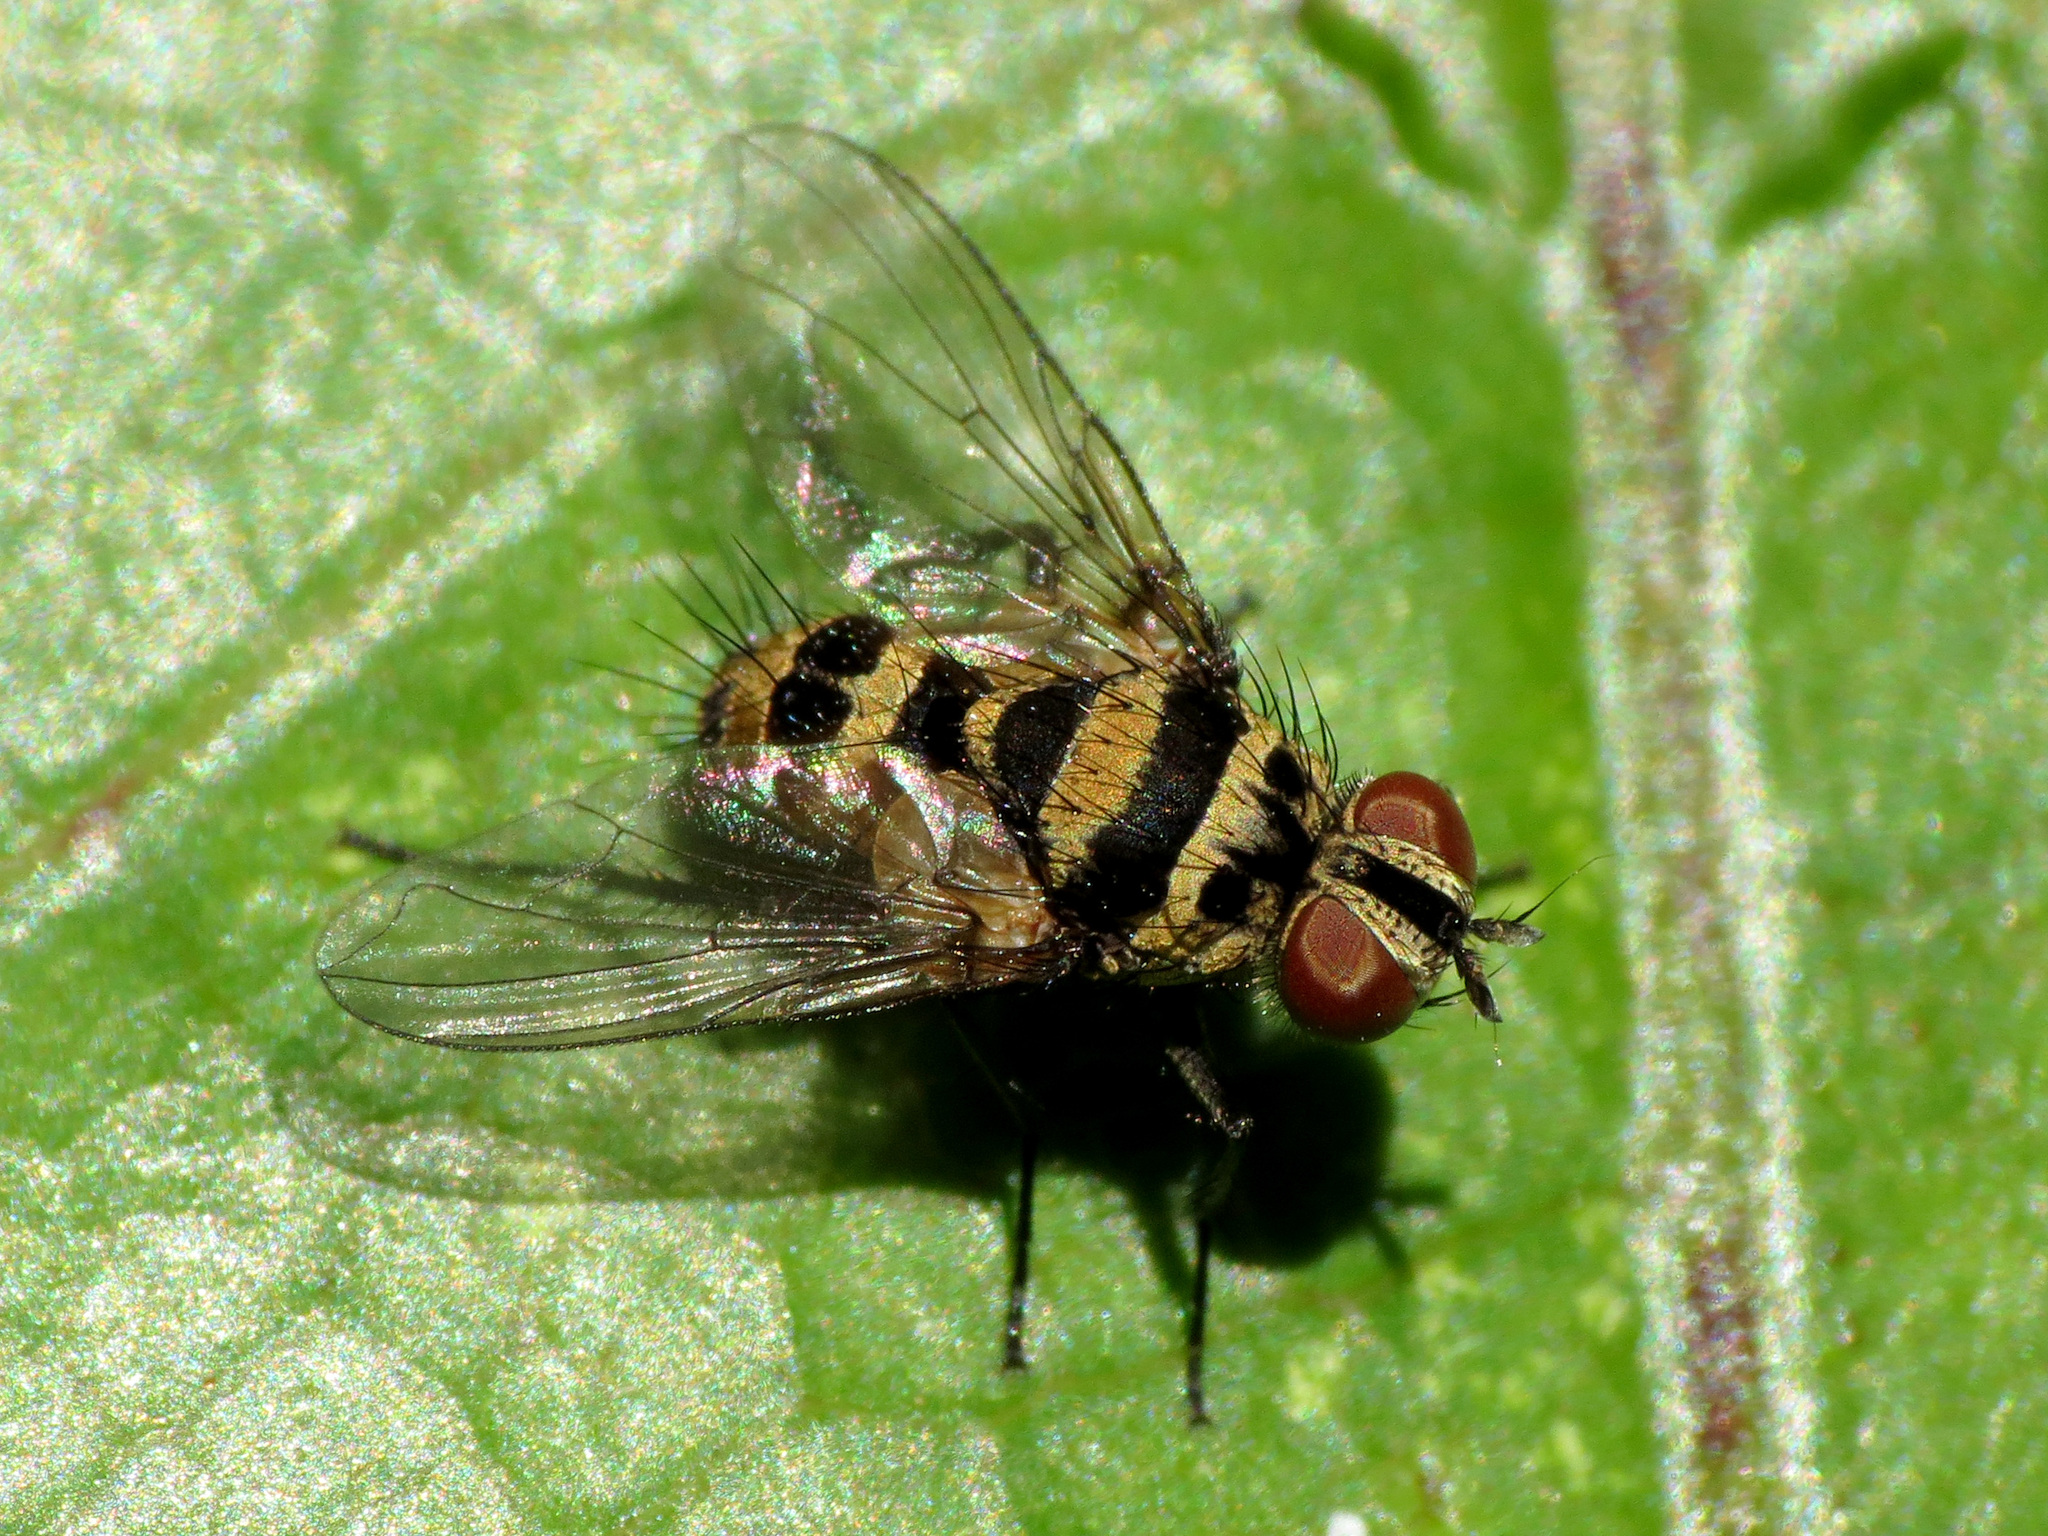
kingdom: Animalia
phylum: Arthropoda
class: Insecta
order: Diptera
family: Tachinidae
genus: Trigonospila
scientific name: Trigonospila brevifacies
